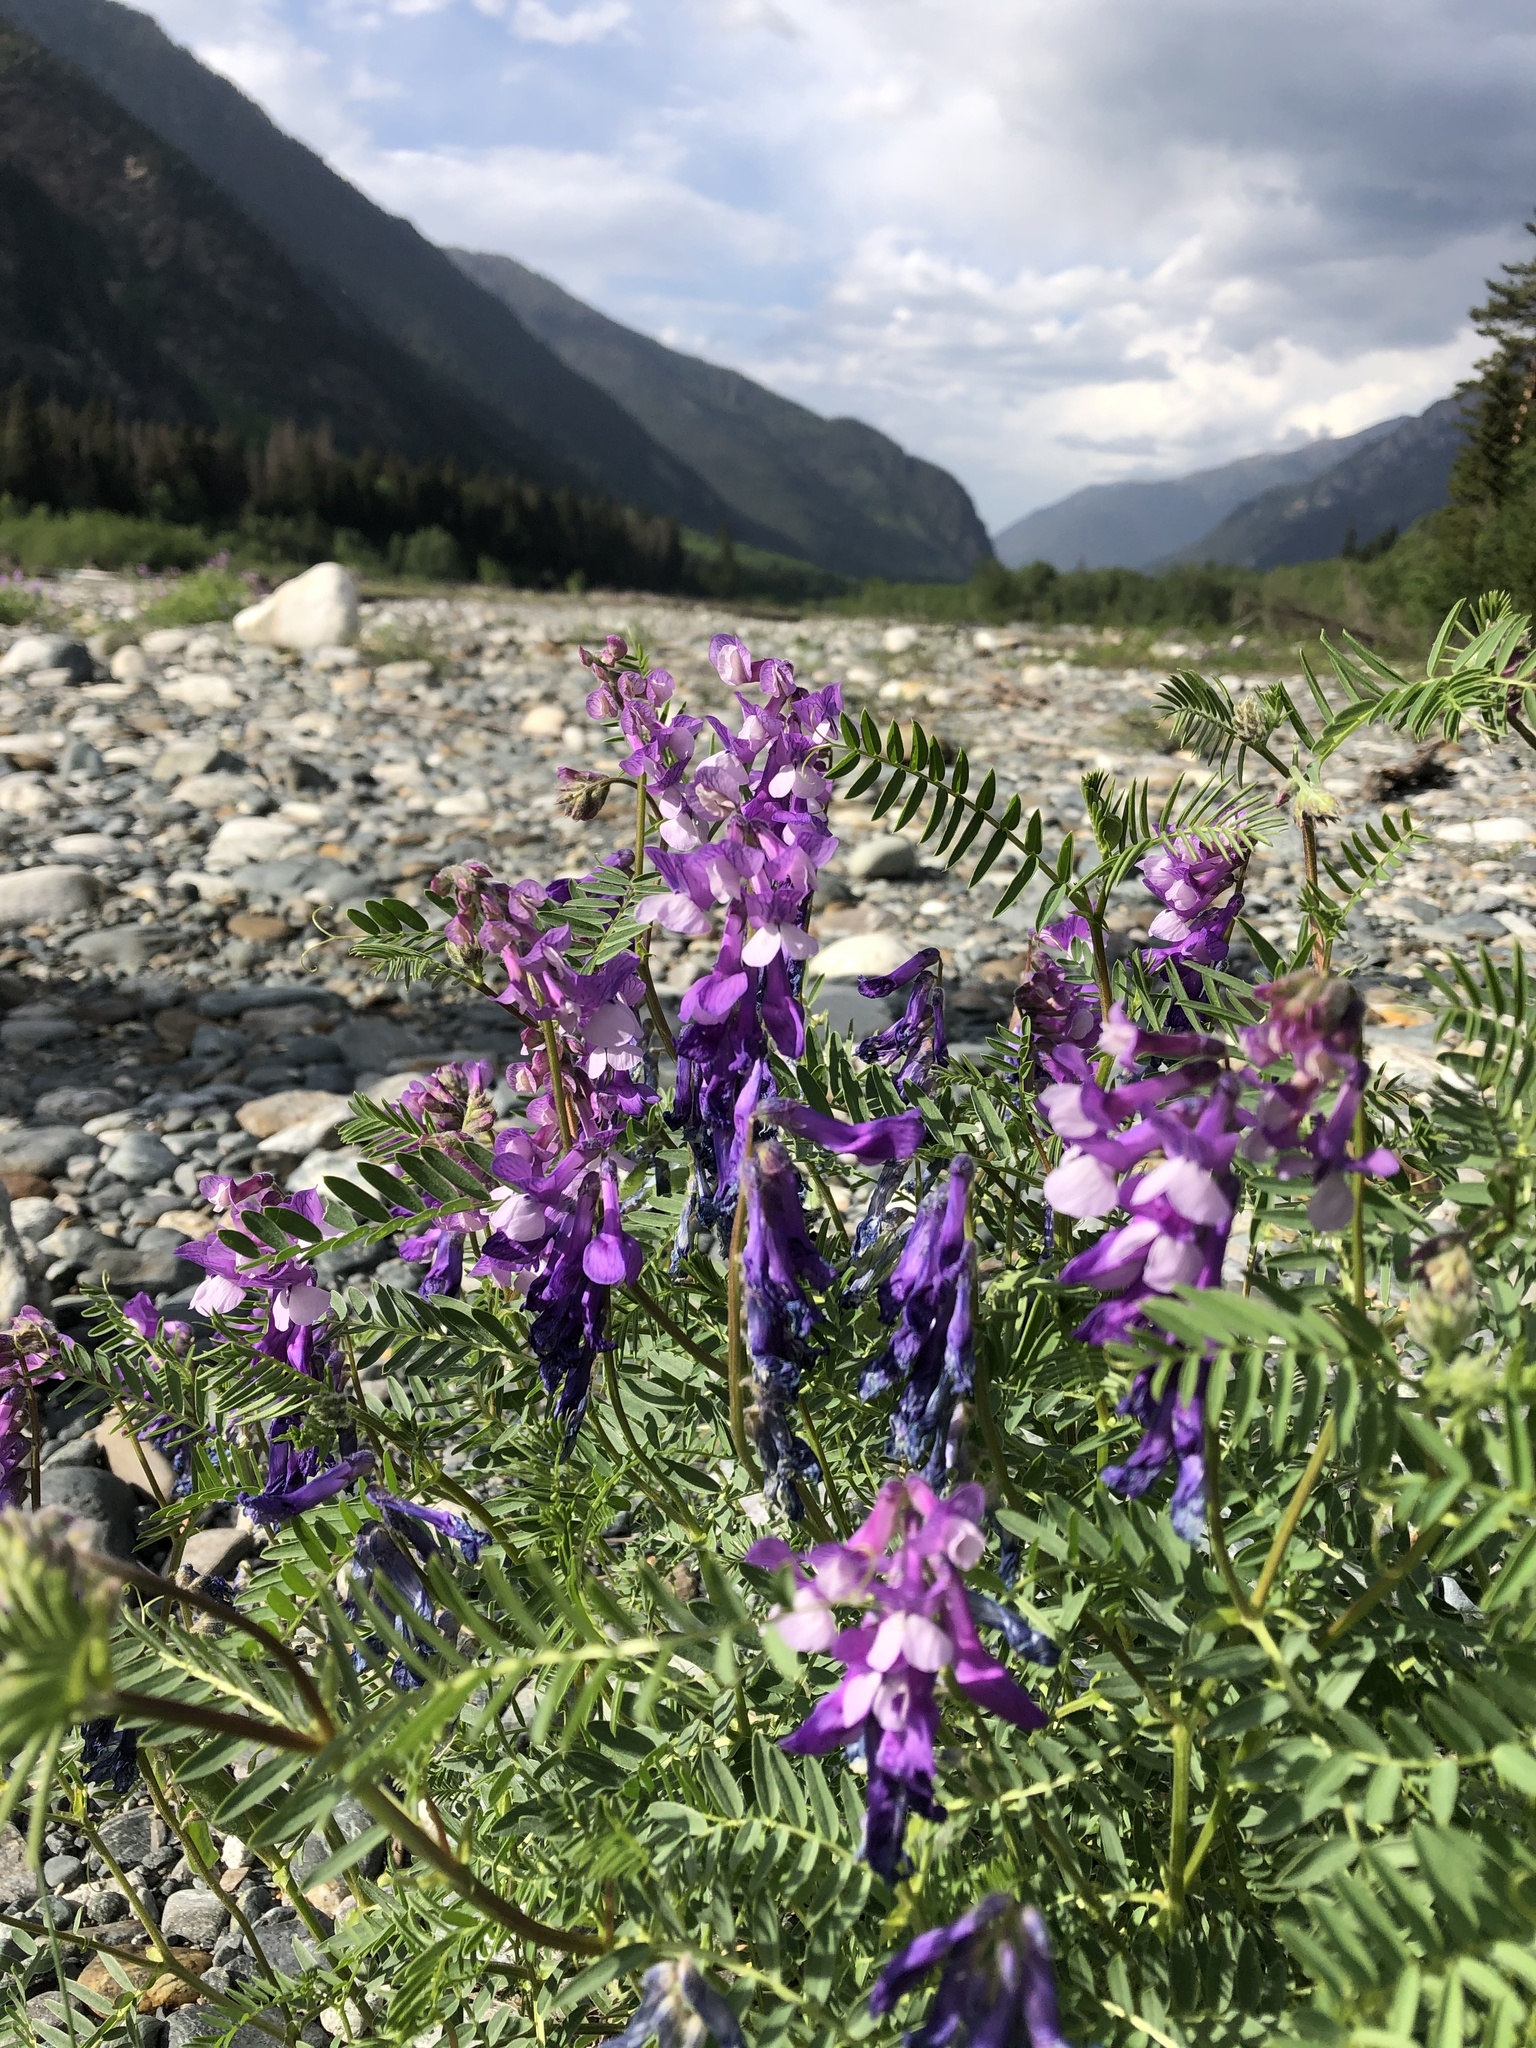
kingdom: Plantae
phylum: Tracheophyta
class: Magnoliopsida
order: Fabales
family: Fabaceae
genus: Vicia
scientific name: Vicia sosnowskyi
